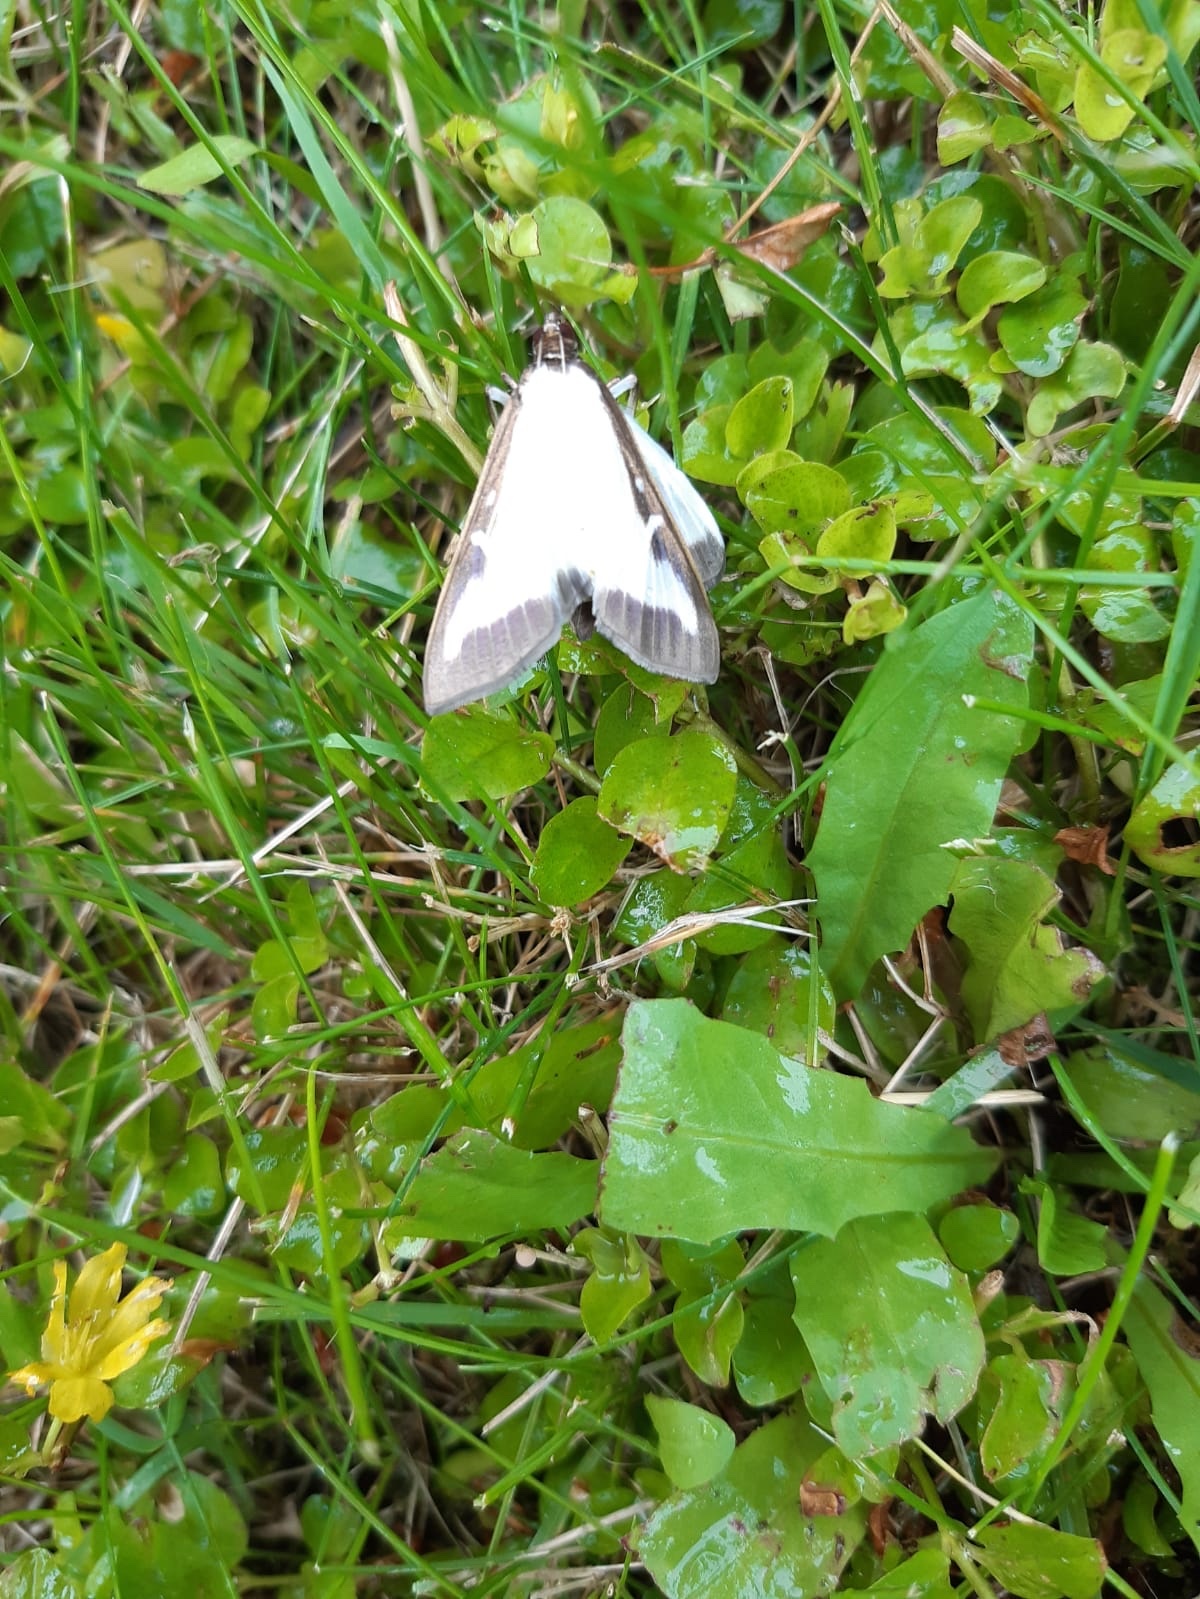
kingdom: Animalia
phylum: Arthropoda
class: Insecta
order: Lepidoptera
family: Crambidae
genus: Cydalima
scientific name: Cydalima perspectalis
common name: Box tree moth
